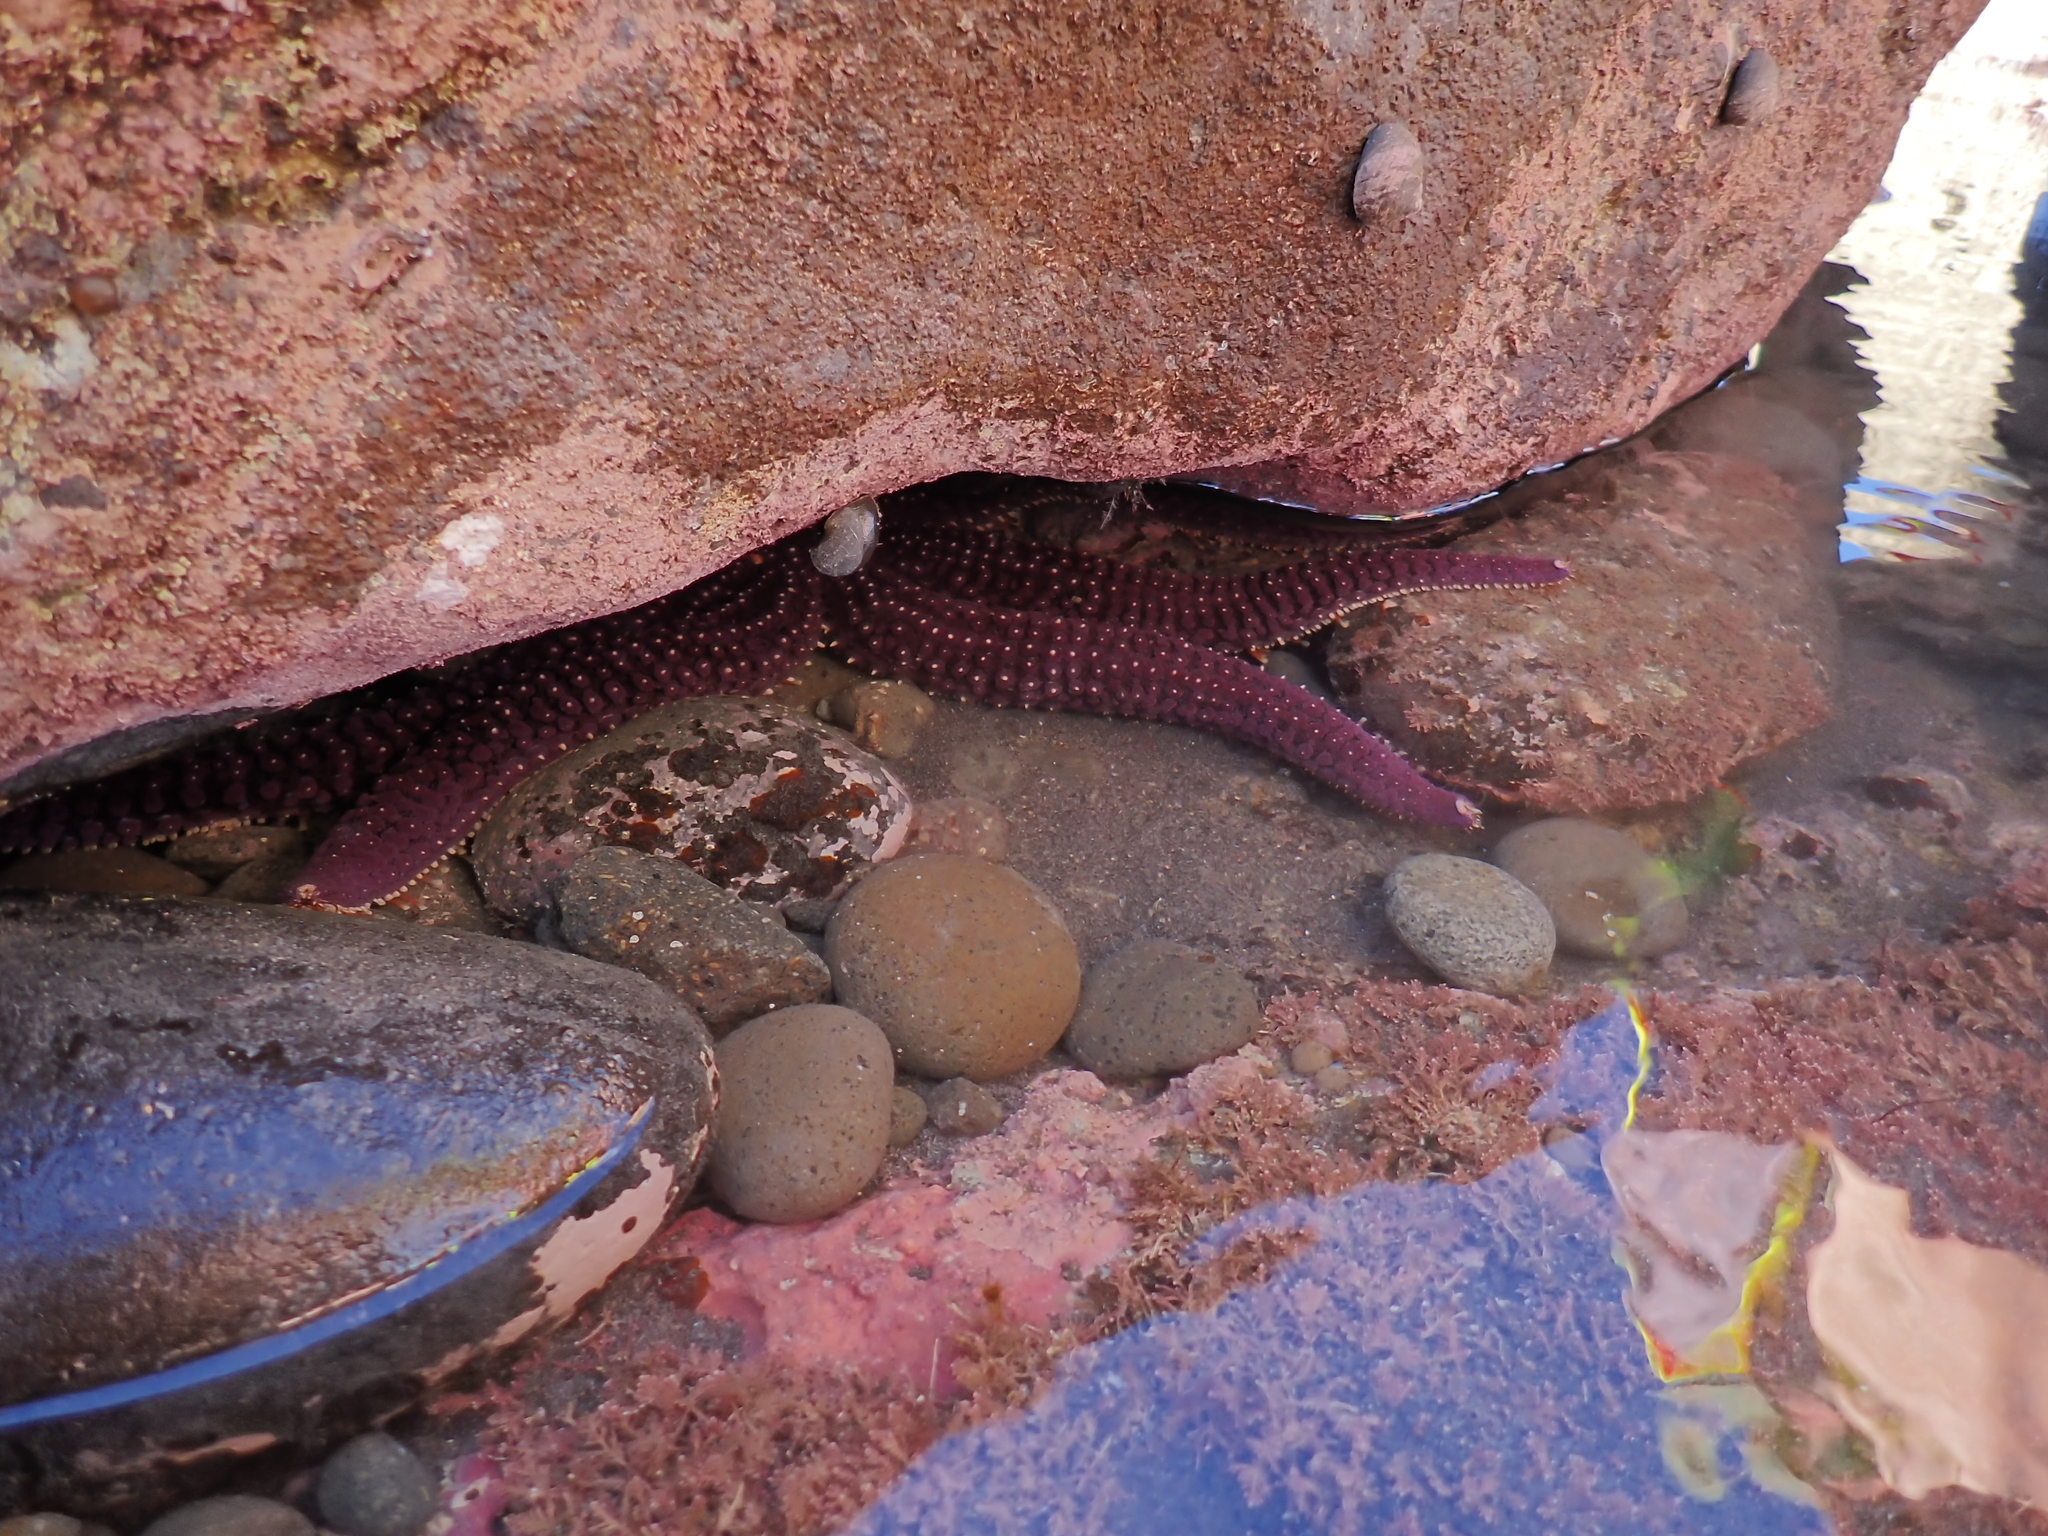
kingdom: Animalia
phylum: Echinodermata
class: Asteroidea
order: Forcipulatida
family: Asteriidae
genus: Astrostole
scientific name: Astrostole scabra
